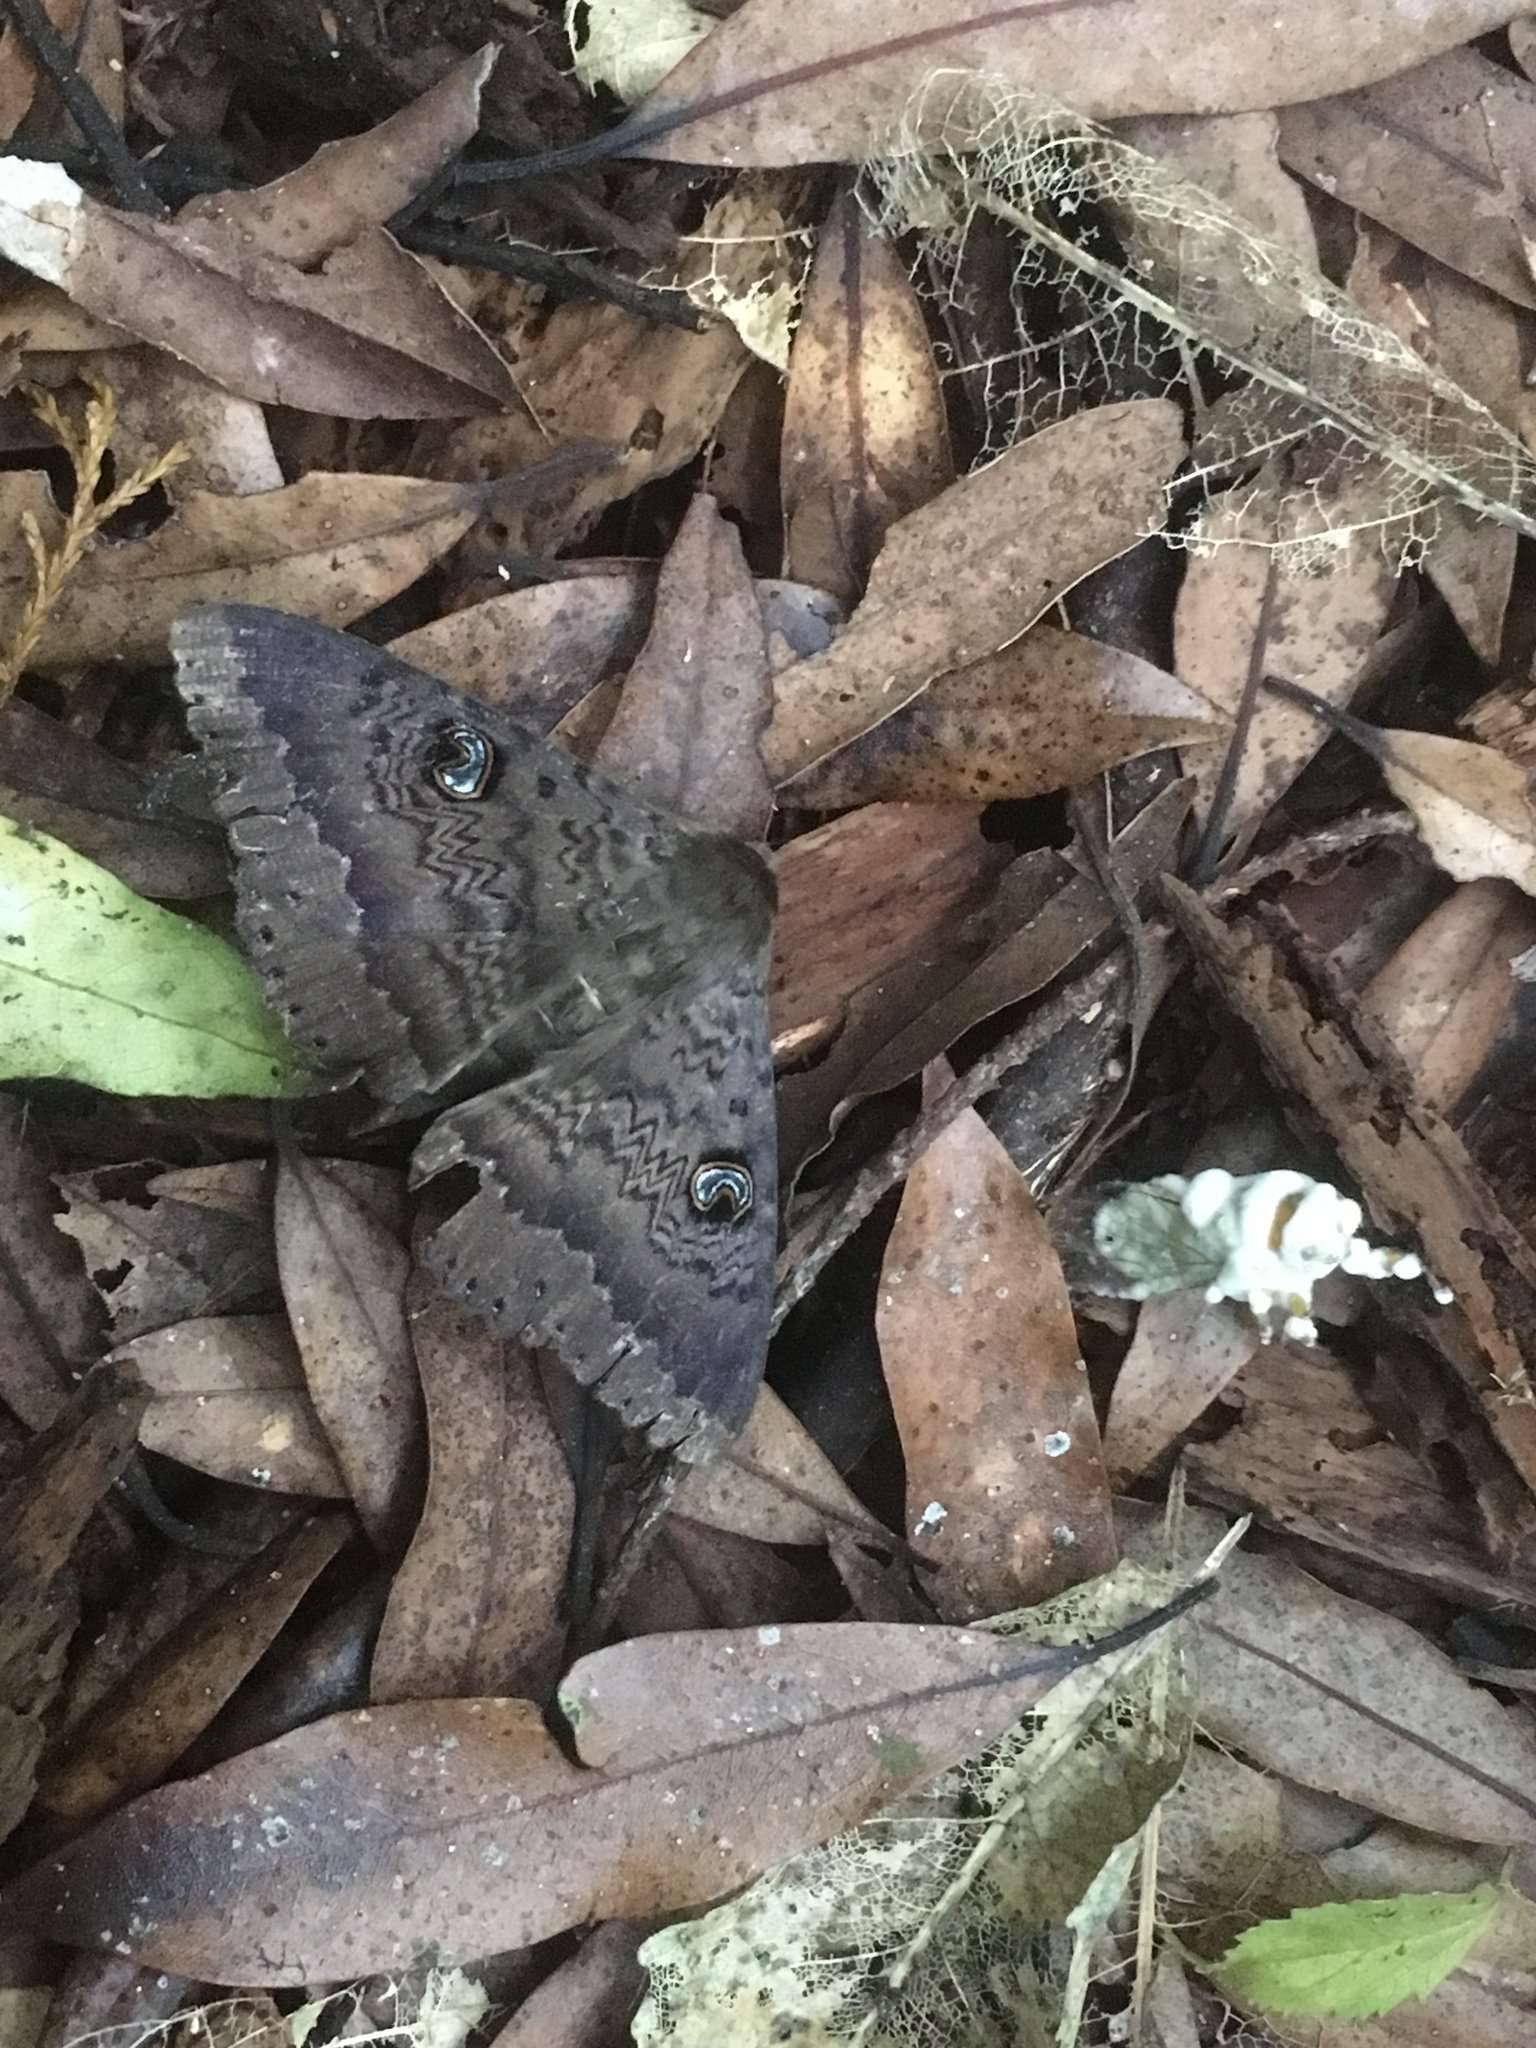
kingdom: Animalia
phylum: Arthropoda
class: Insecta
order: Lepidoptera
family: Erebidae
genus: Dasypodia
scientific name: Dasypodia cymatodes
